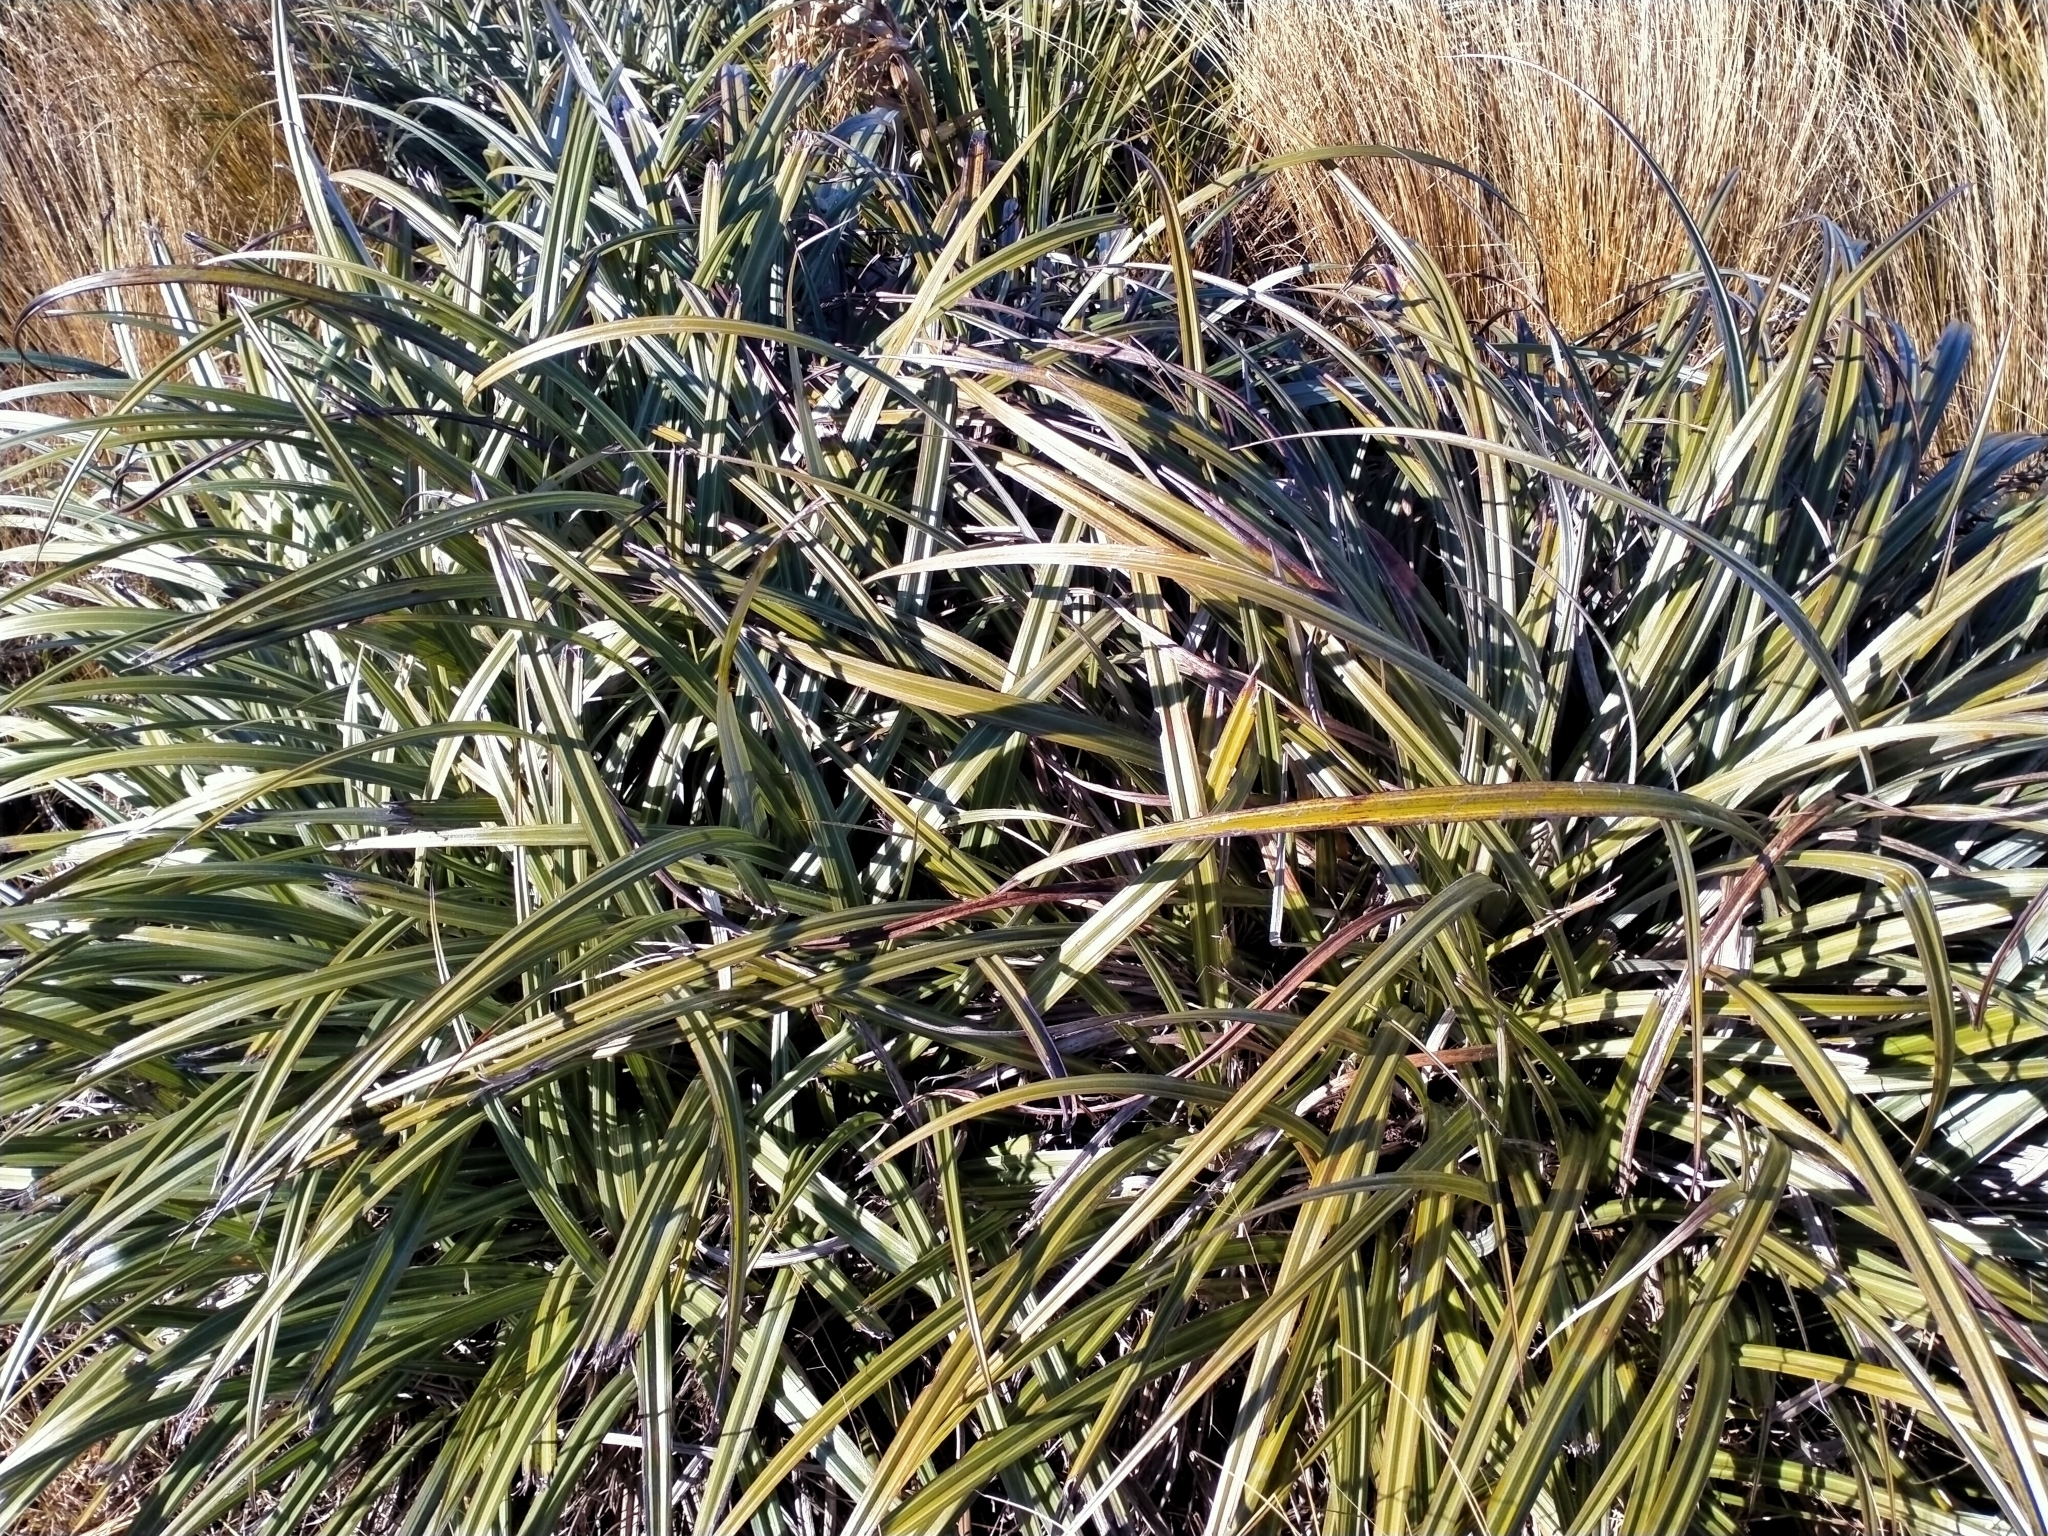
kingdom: Plantae
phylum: Tracheophyta
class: Liliopsida
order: Asparagales
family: Asteliaceae
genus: Astelia
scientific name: Astelia nervosa
